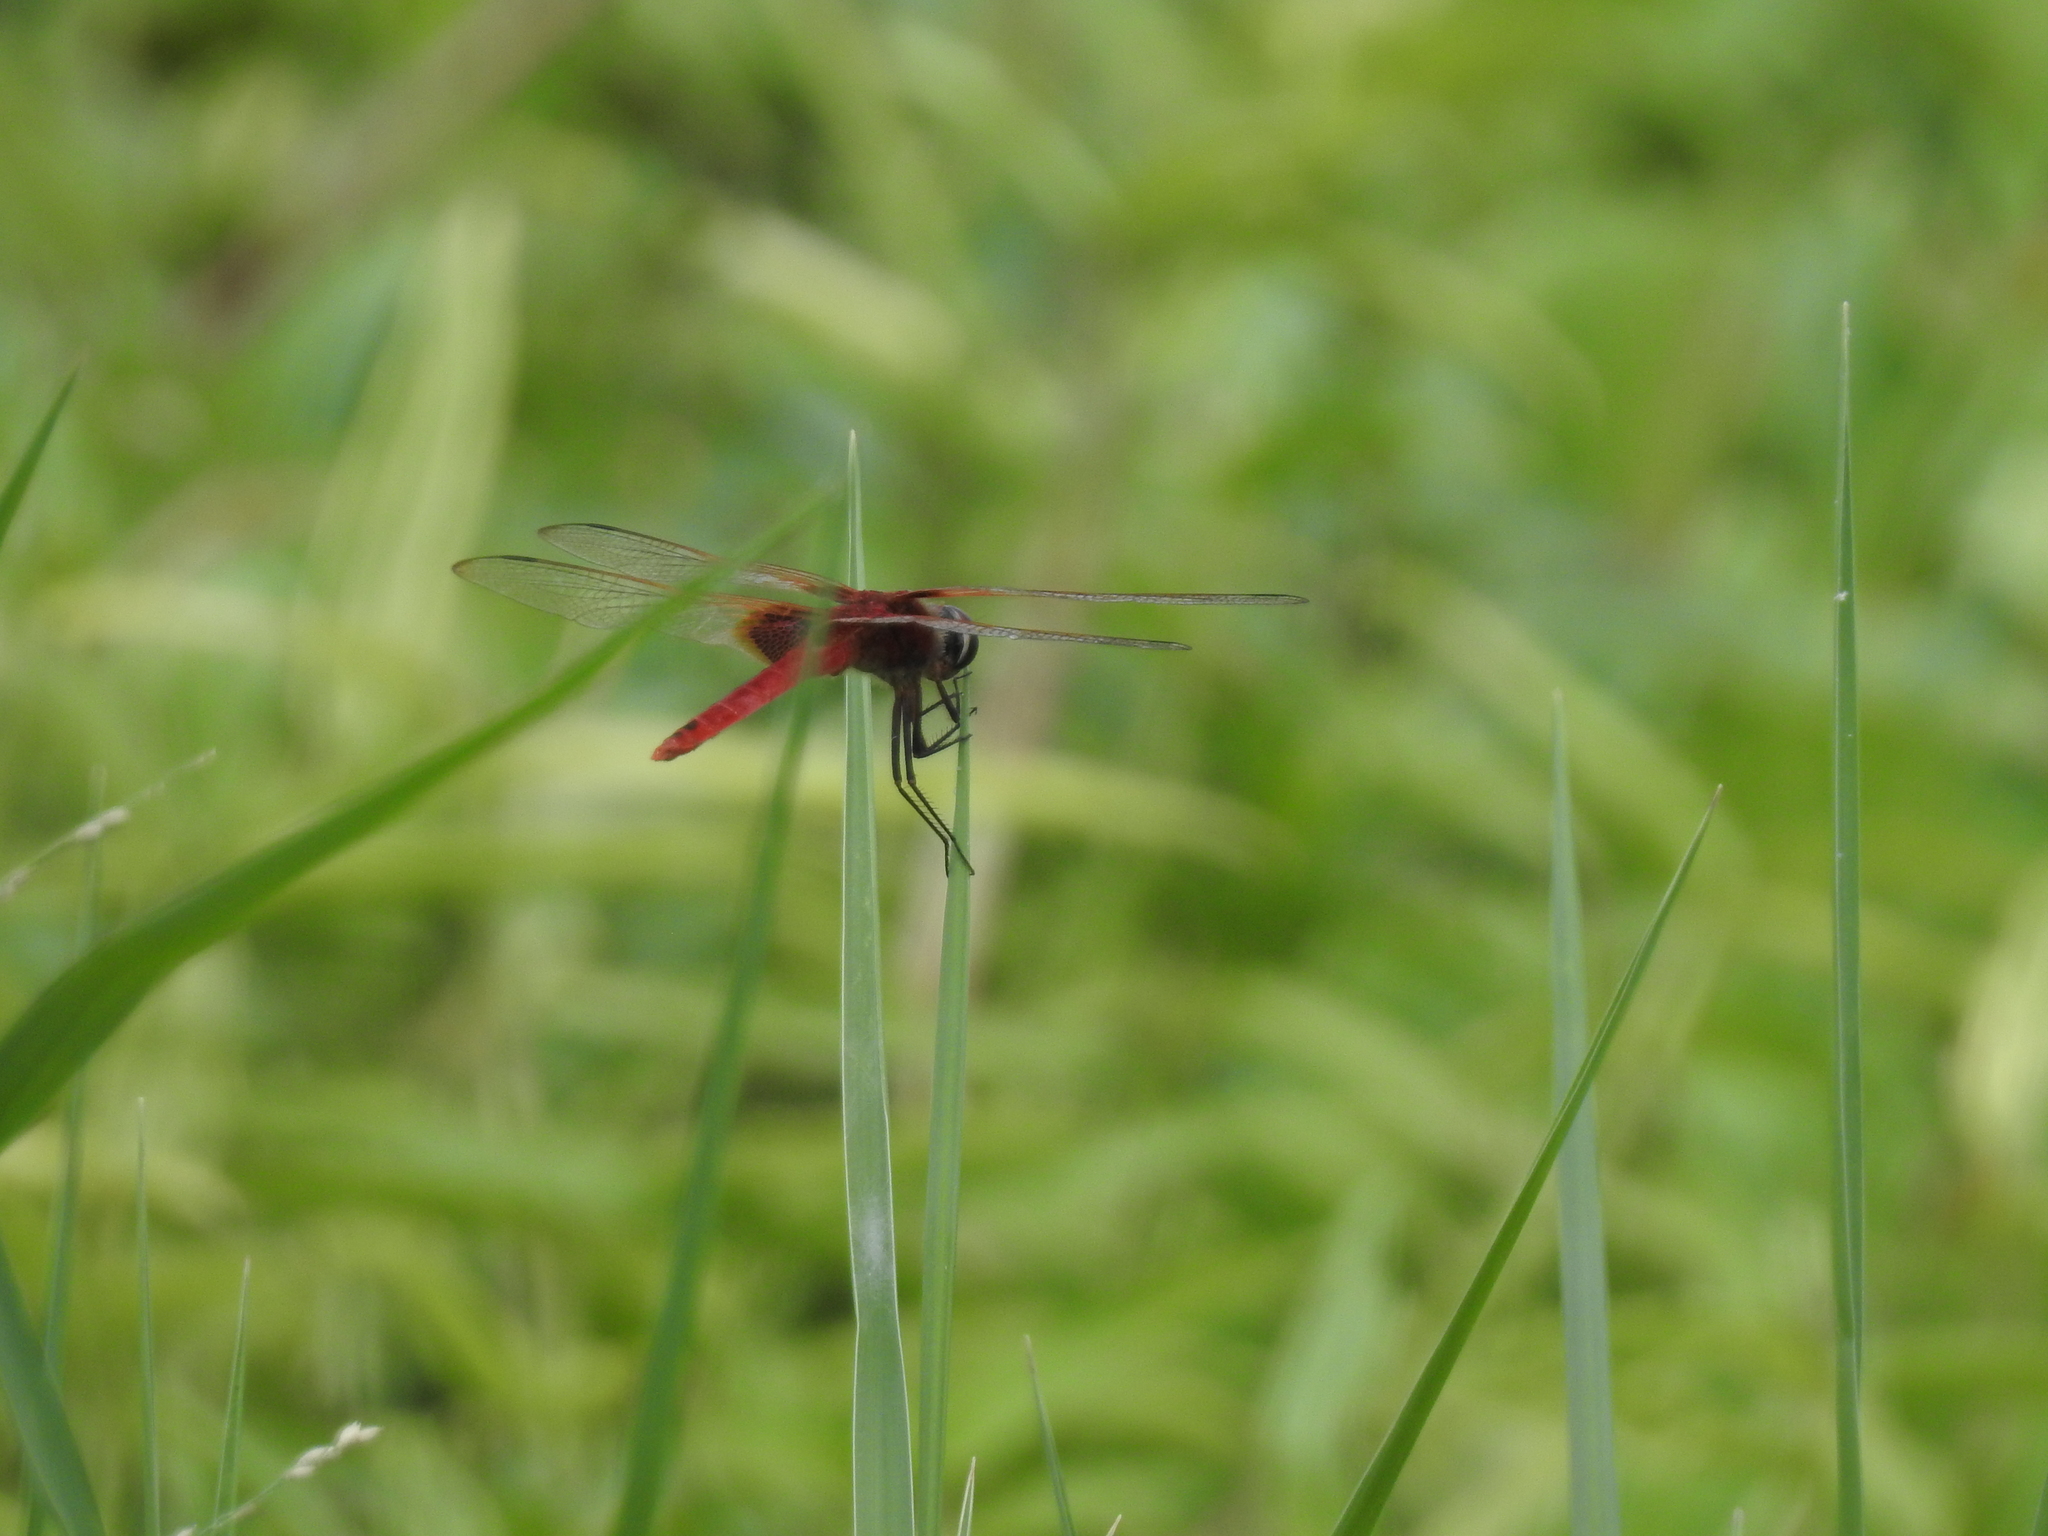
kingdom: Animalia
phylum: Arthropoda
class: Insecta
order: Odonata
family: Libellulidae
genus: Urothemis
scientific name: Urothemis signata
